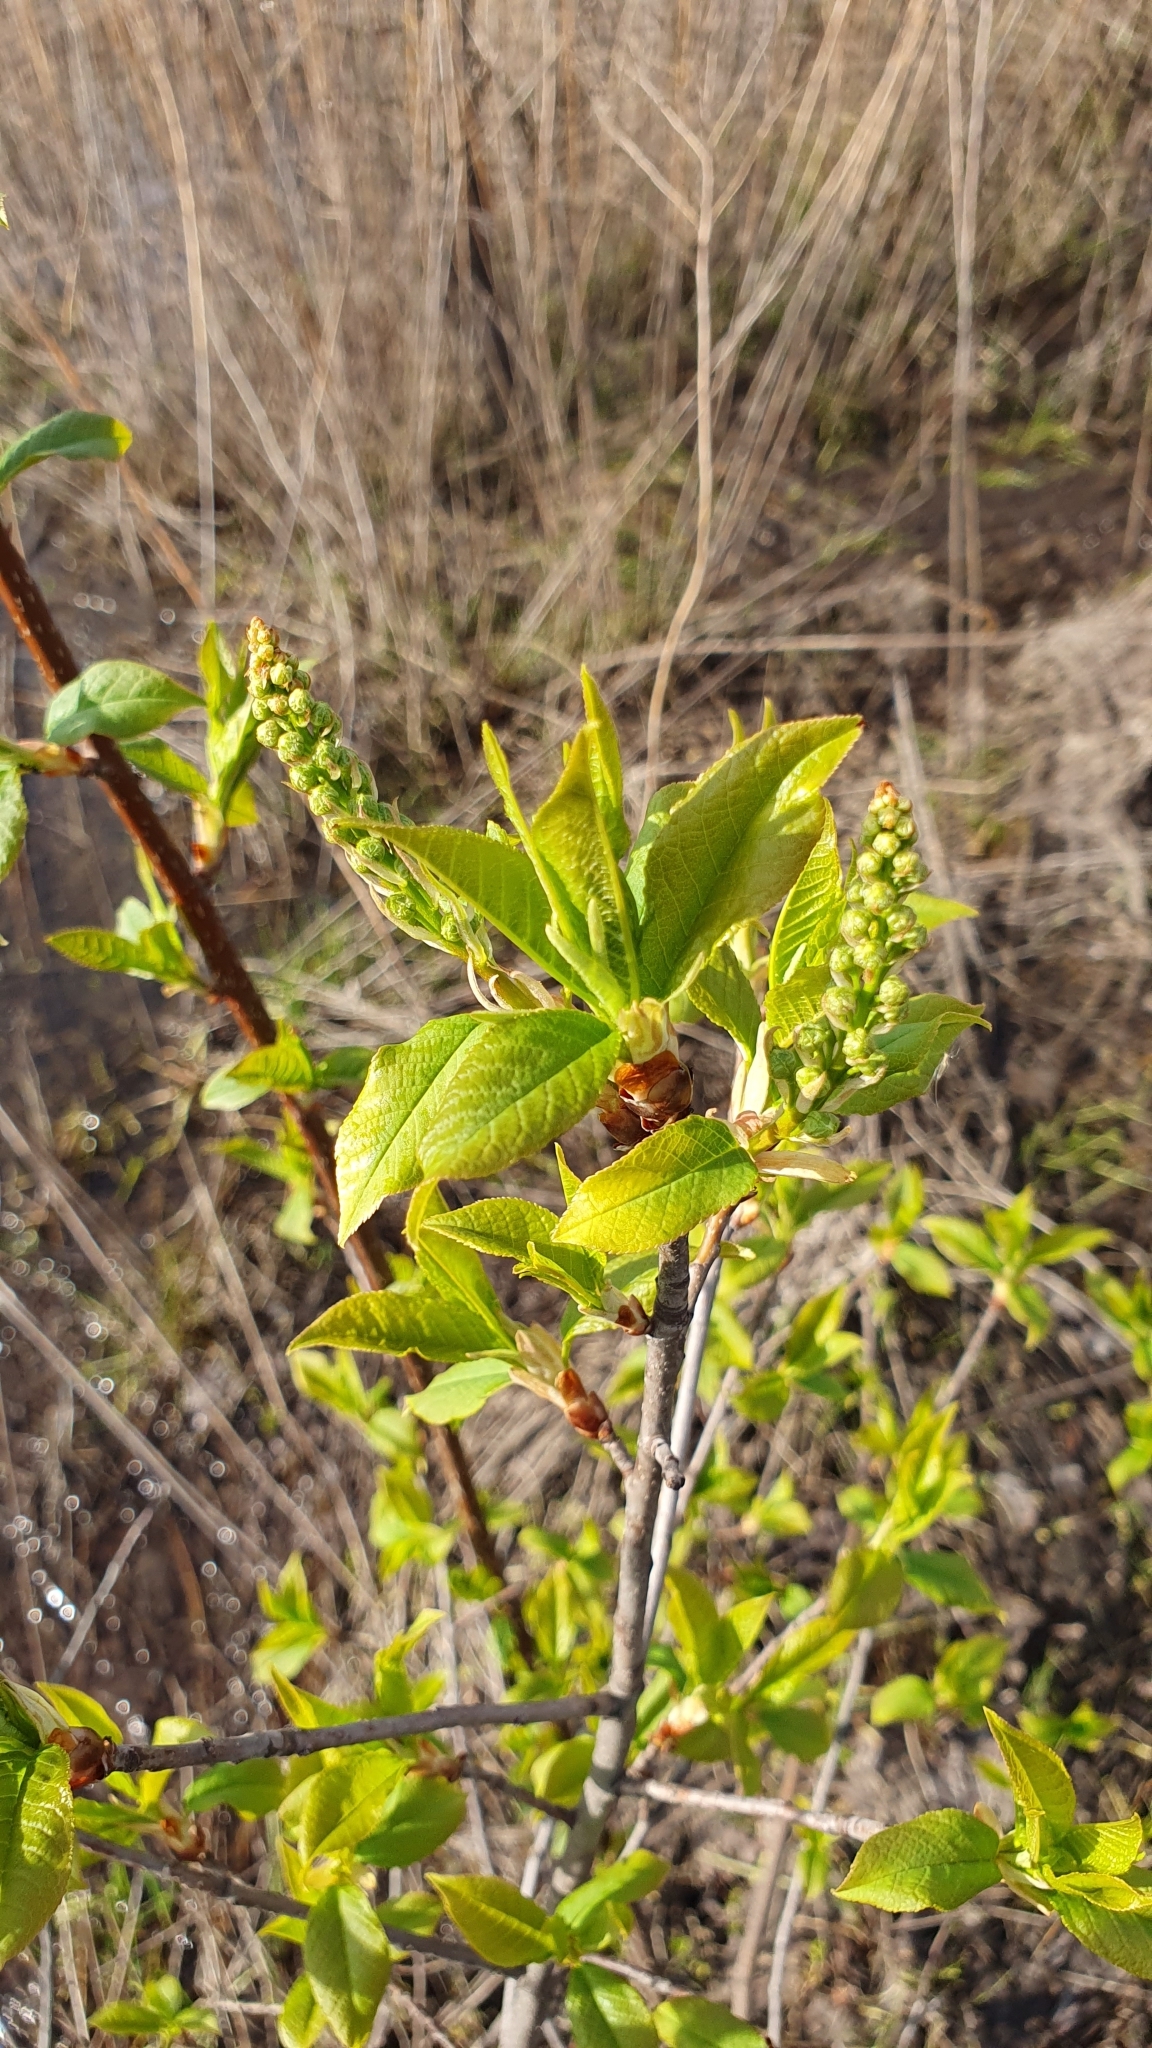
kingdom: Plantae
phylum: Tracheophyta
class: Magnoliopsida
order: Rosales
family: Rosaceae
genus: Prunus
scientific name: Prunus padus
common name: Bird cherry
